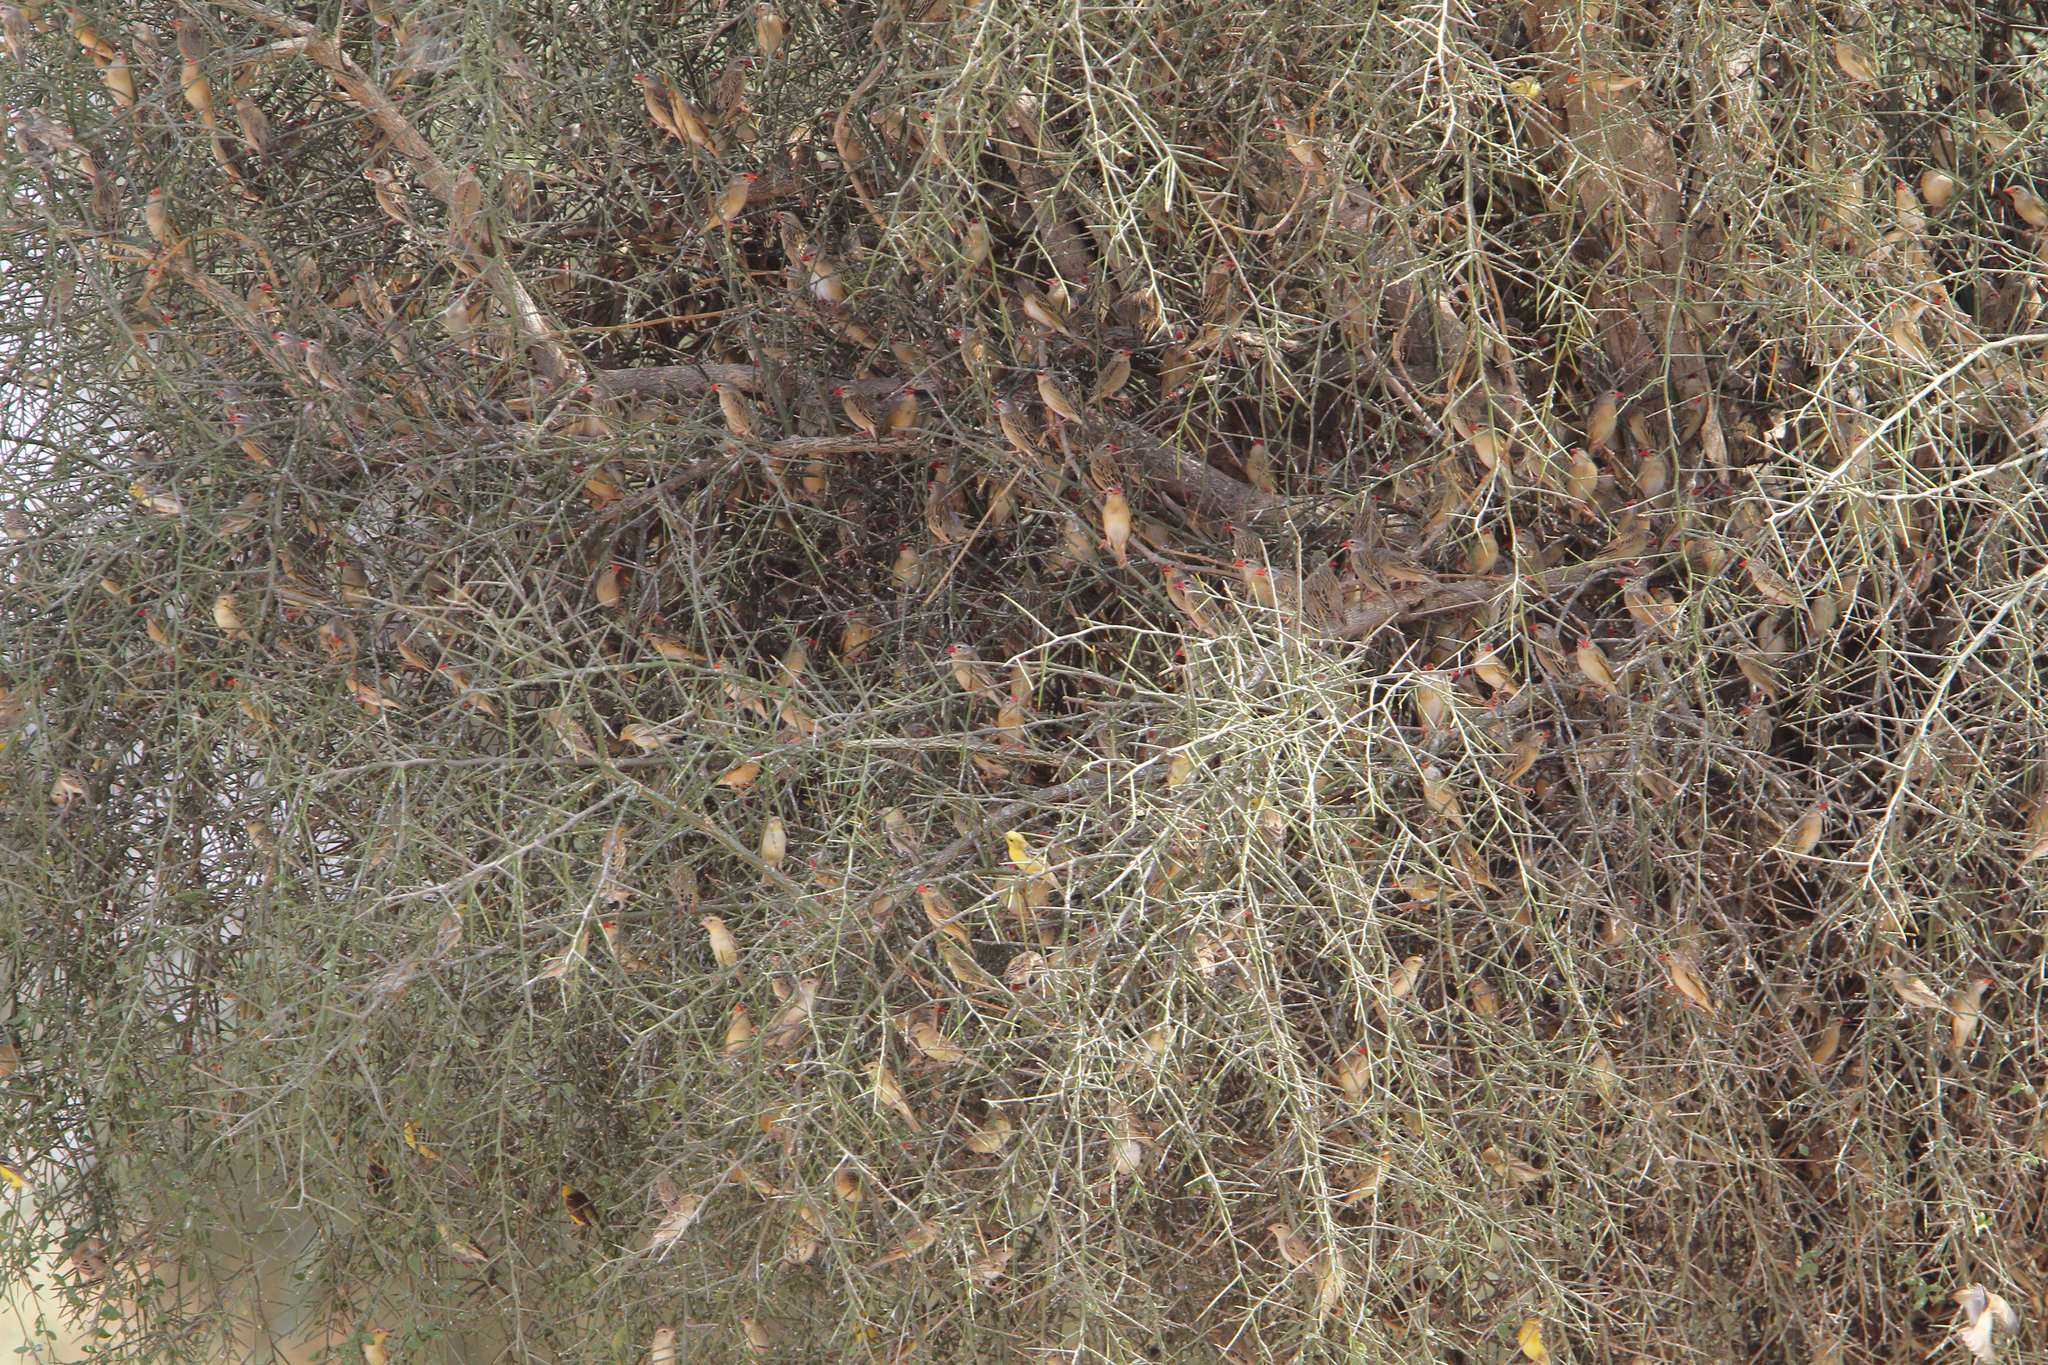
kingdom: Animalia
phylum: Chordata
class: Aves
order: Passeriformes
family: Ploceidae
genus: Quelea
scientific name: Quelea quelea
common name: Red-billed quelea
